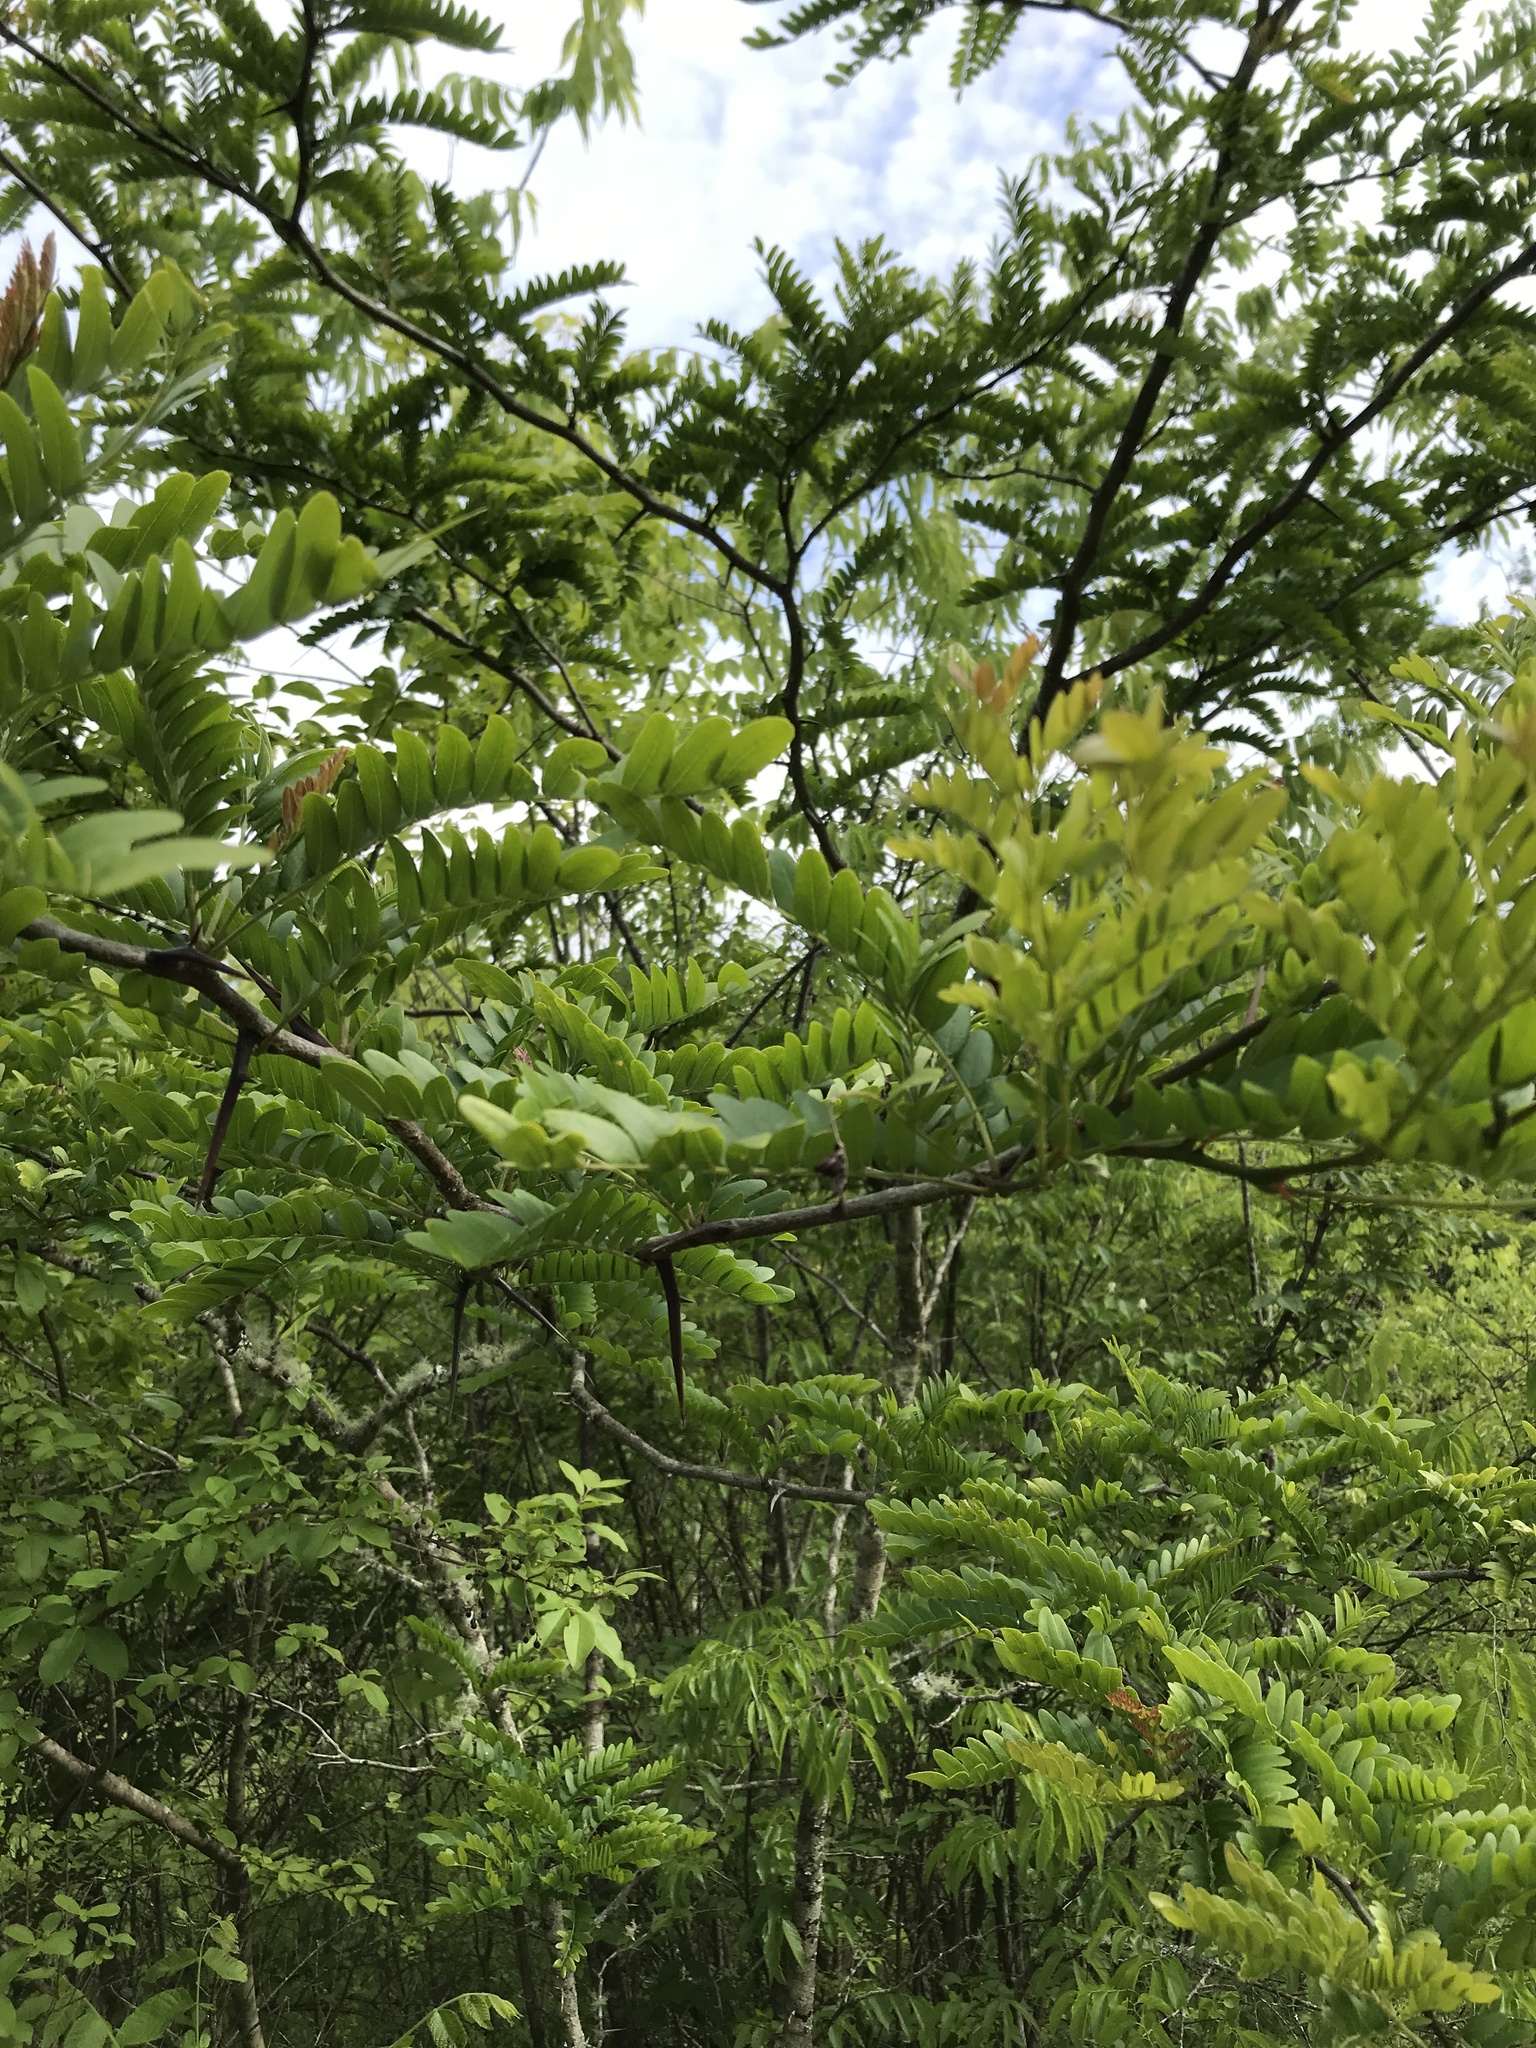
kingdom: Plantae
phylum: Tracheophyta
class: Magnoliopsida
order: Fabales
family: Fabaceae
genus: Gleditsia
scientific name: Gleditsia triacanthos
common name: Common honeylocust
